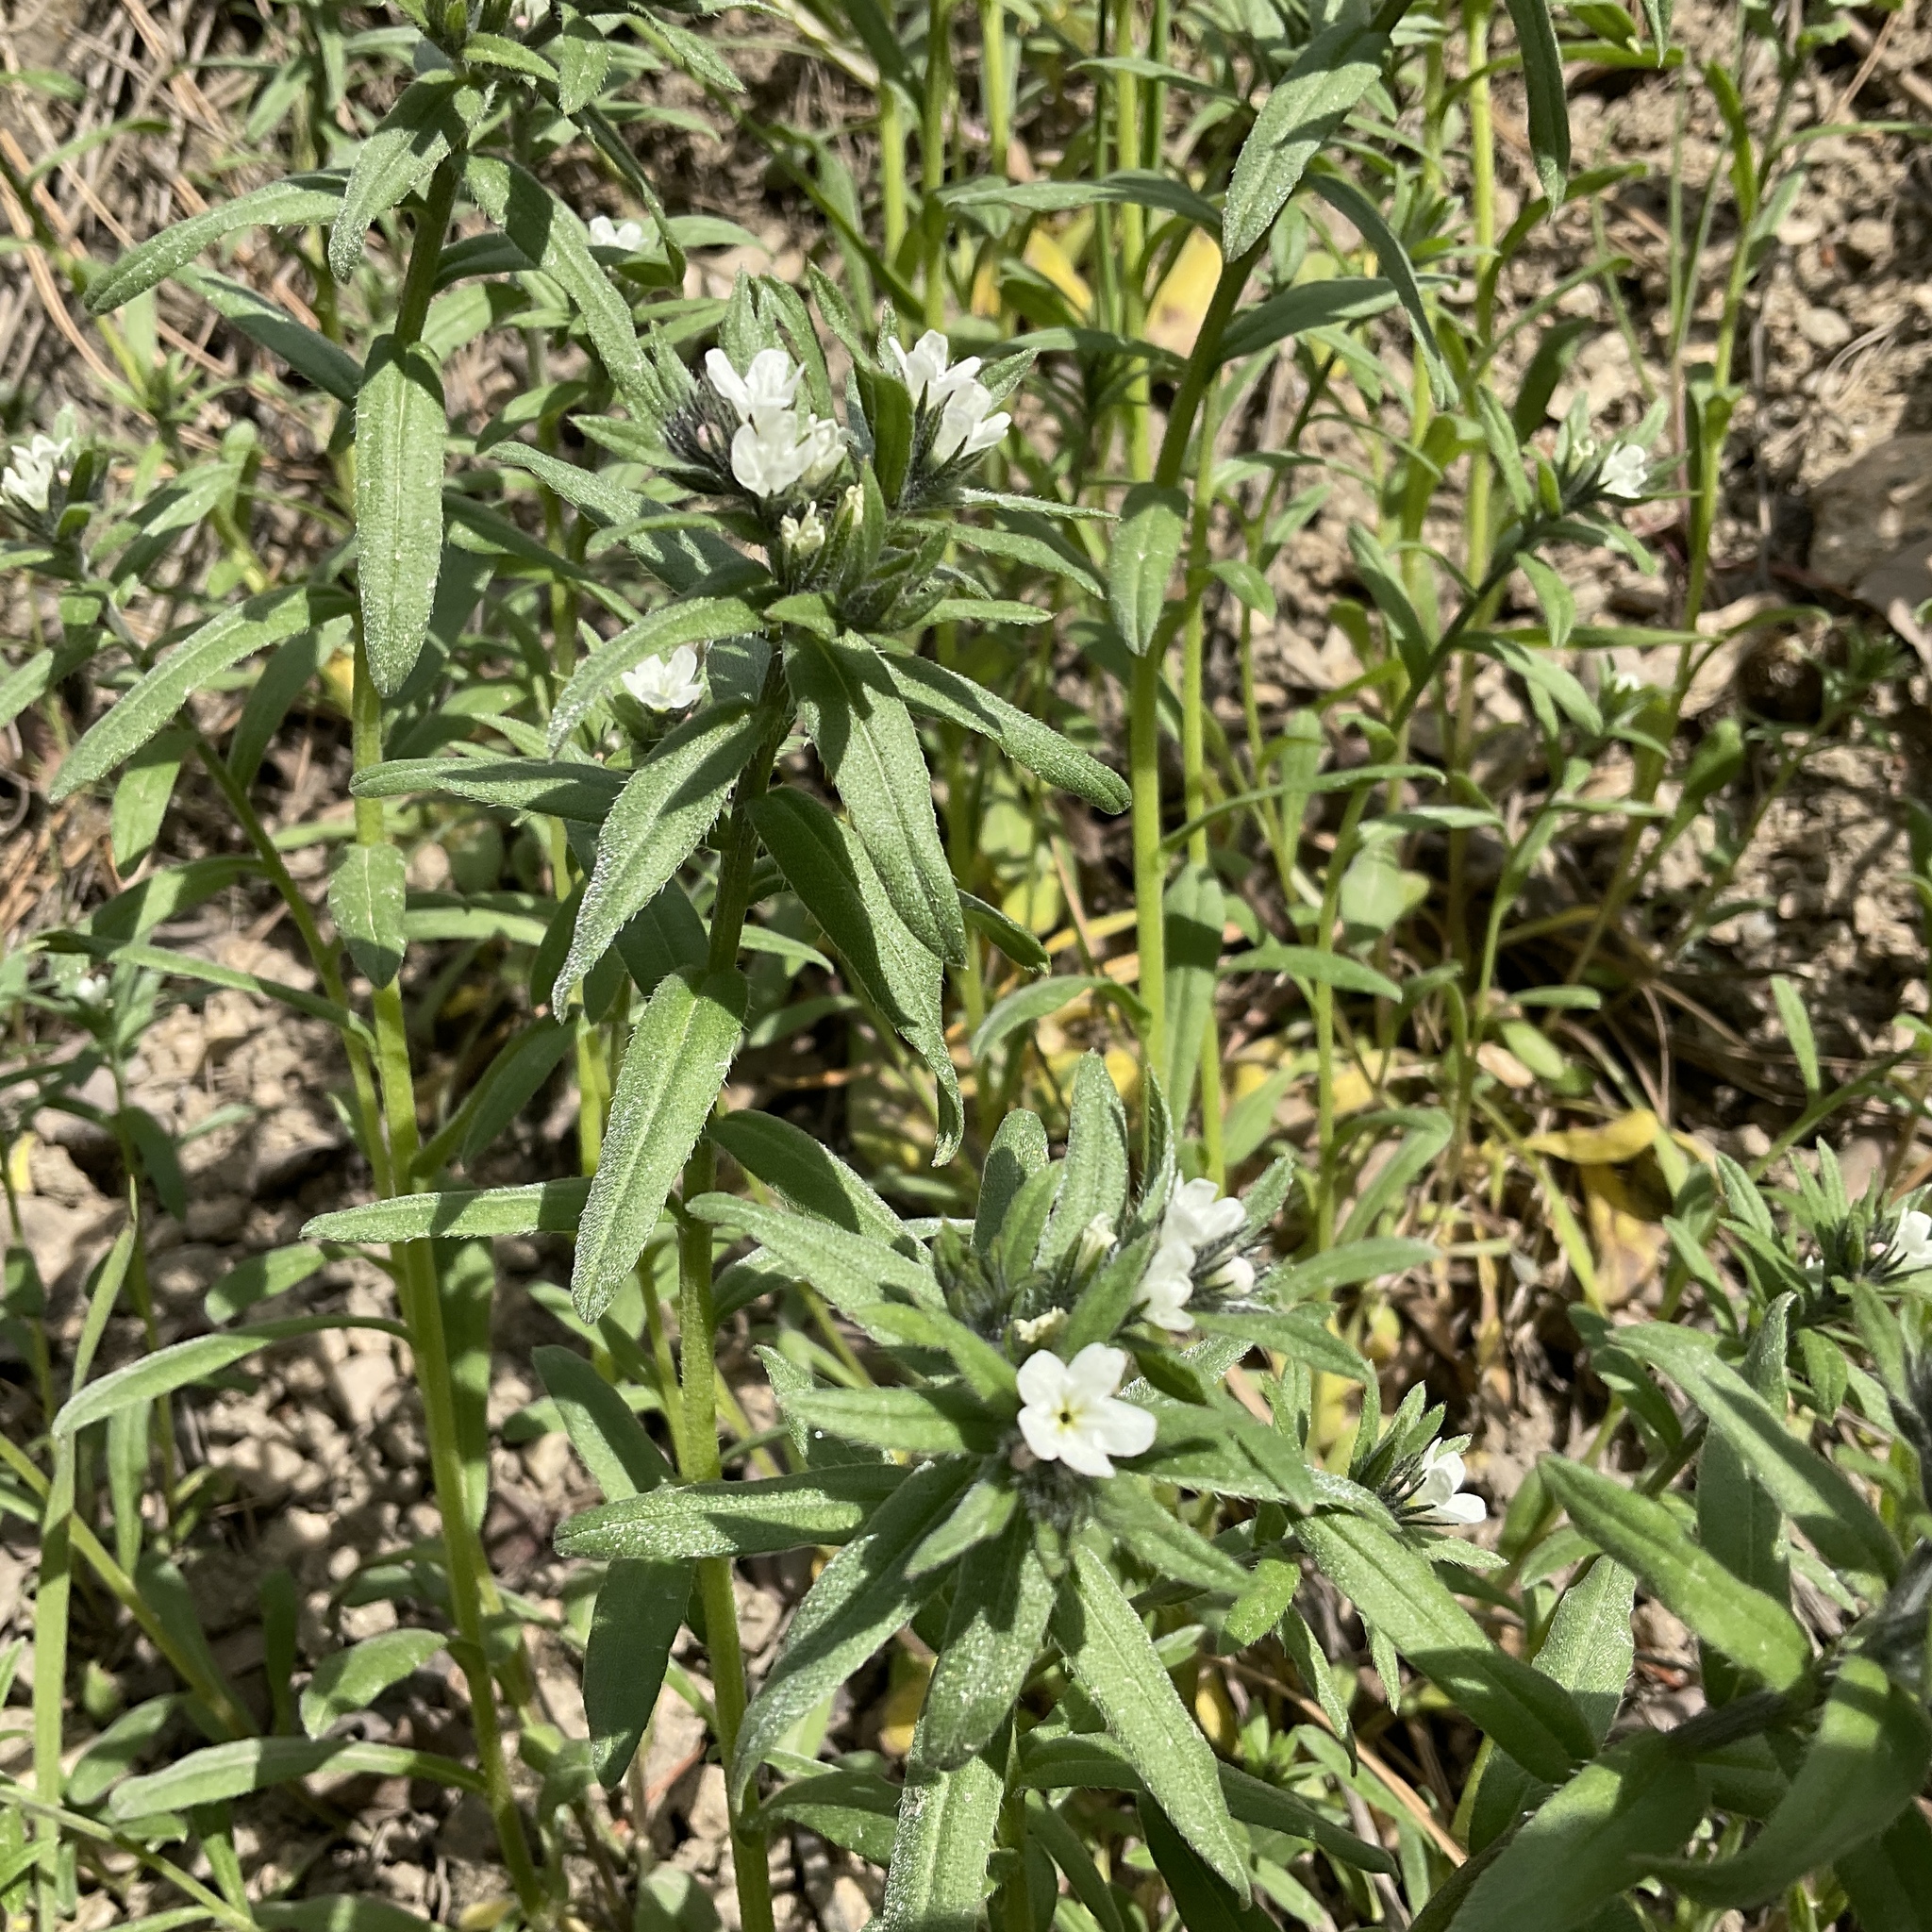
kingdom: Plantae
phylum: Tracheophyta
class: Magnoliopsida
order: Boraginales
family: Boraginaceae
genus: Buglossoides
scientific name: Buglossoides arvensis
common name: Corn gromwell
